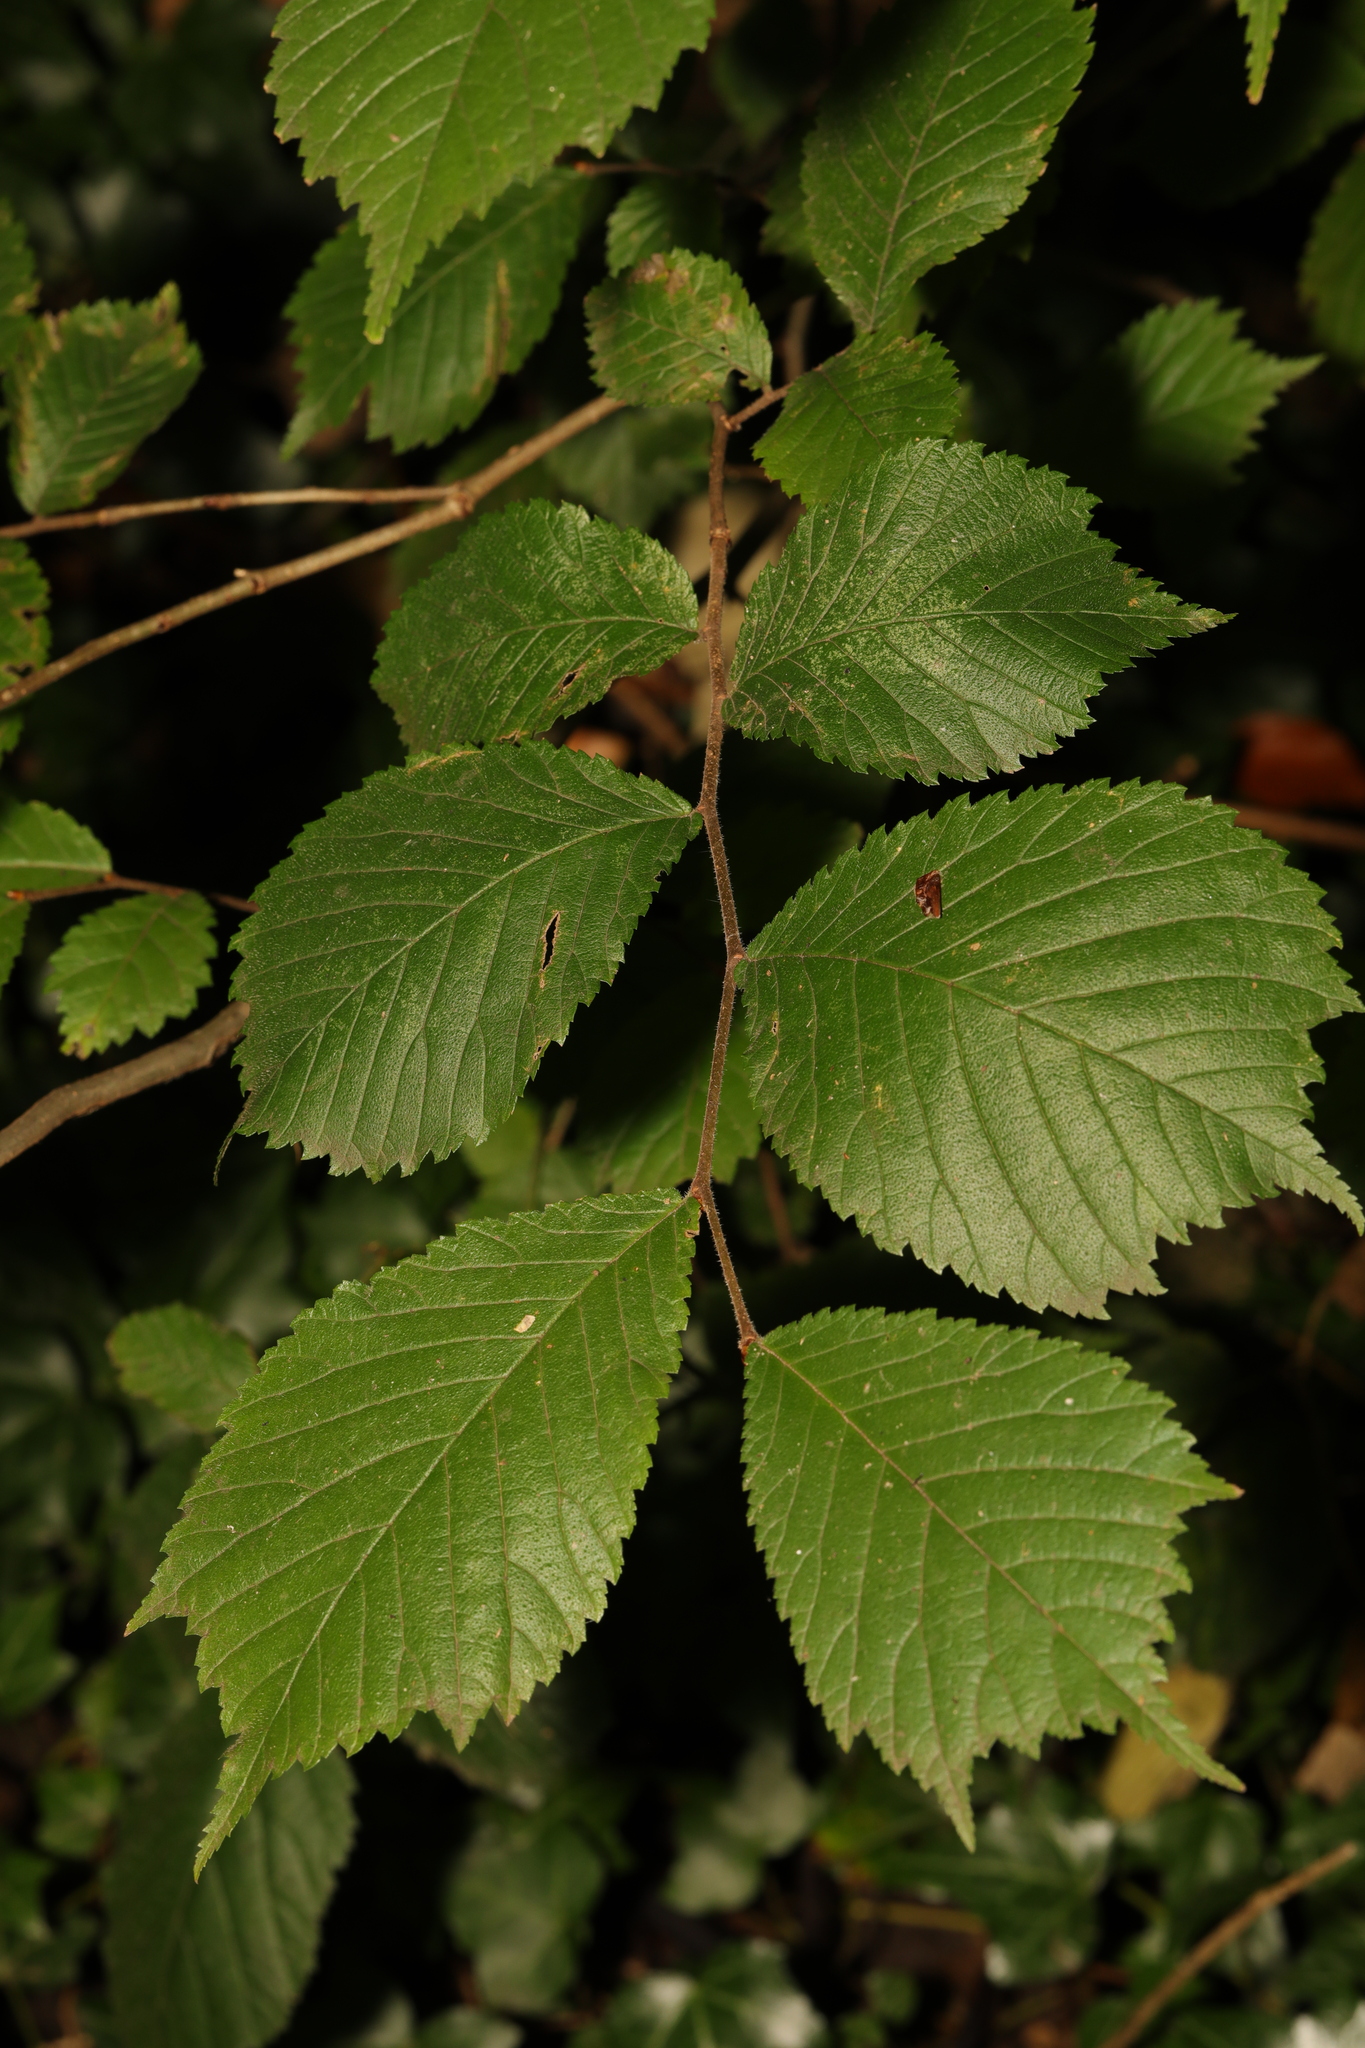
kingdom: Plantae
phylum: Tracheophyta
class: Magnoliopsida
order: Rosales
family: Ulmaceae
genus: Ulmus
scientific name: Ulmus glabra
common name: Wych elm
